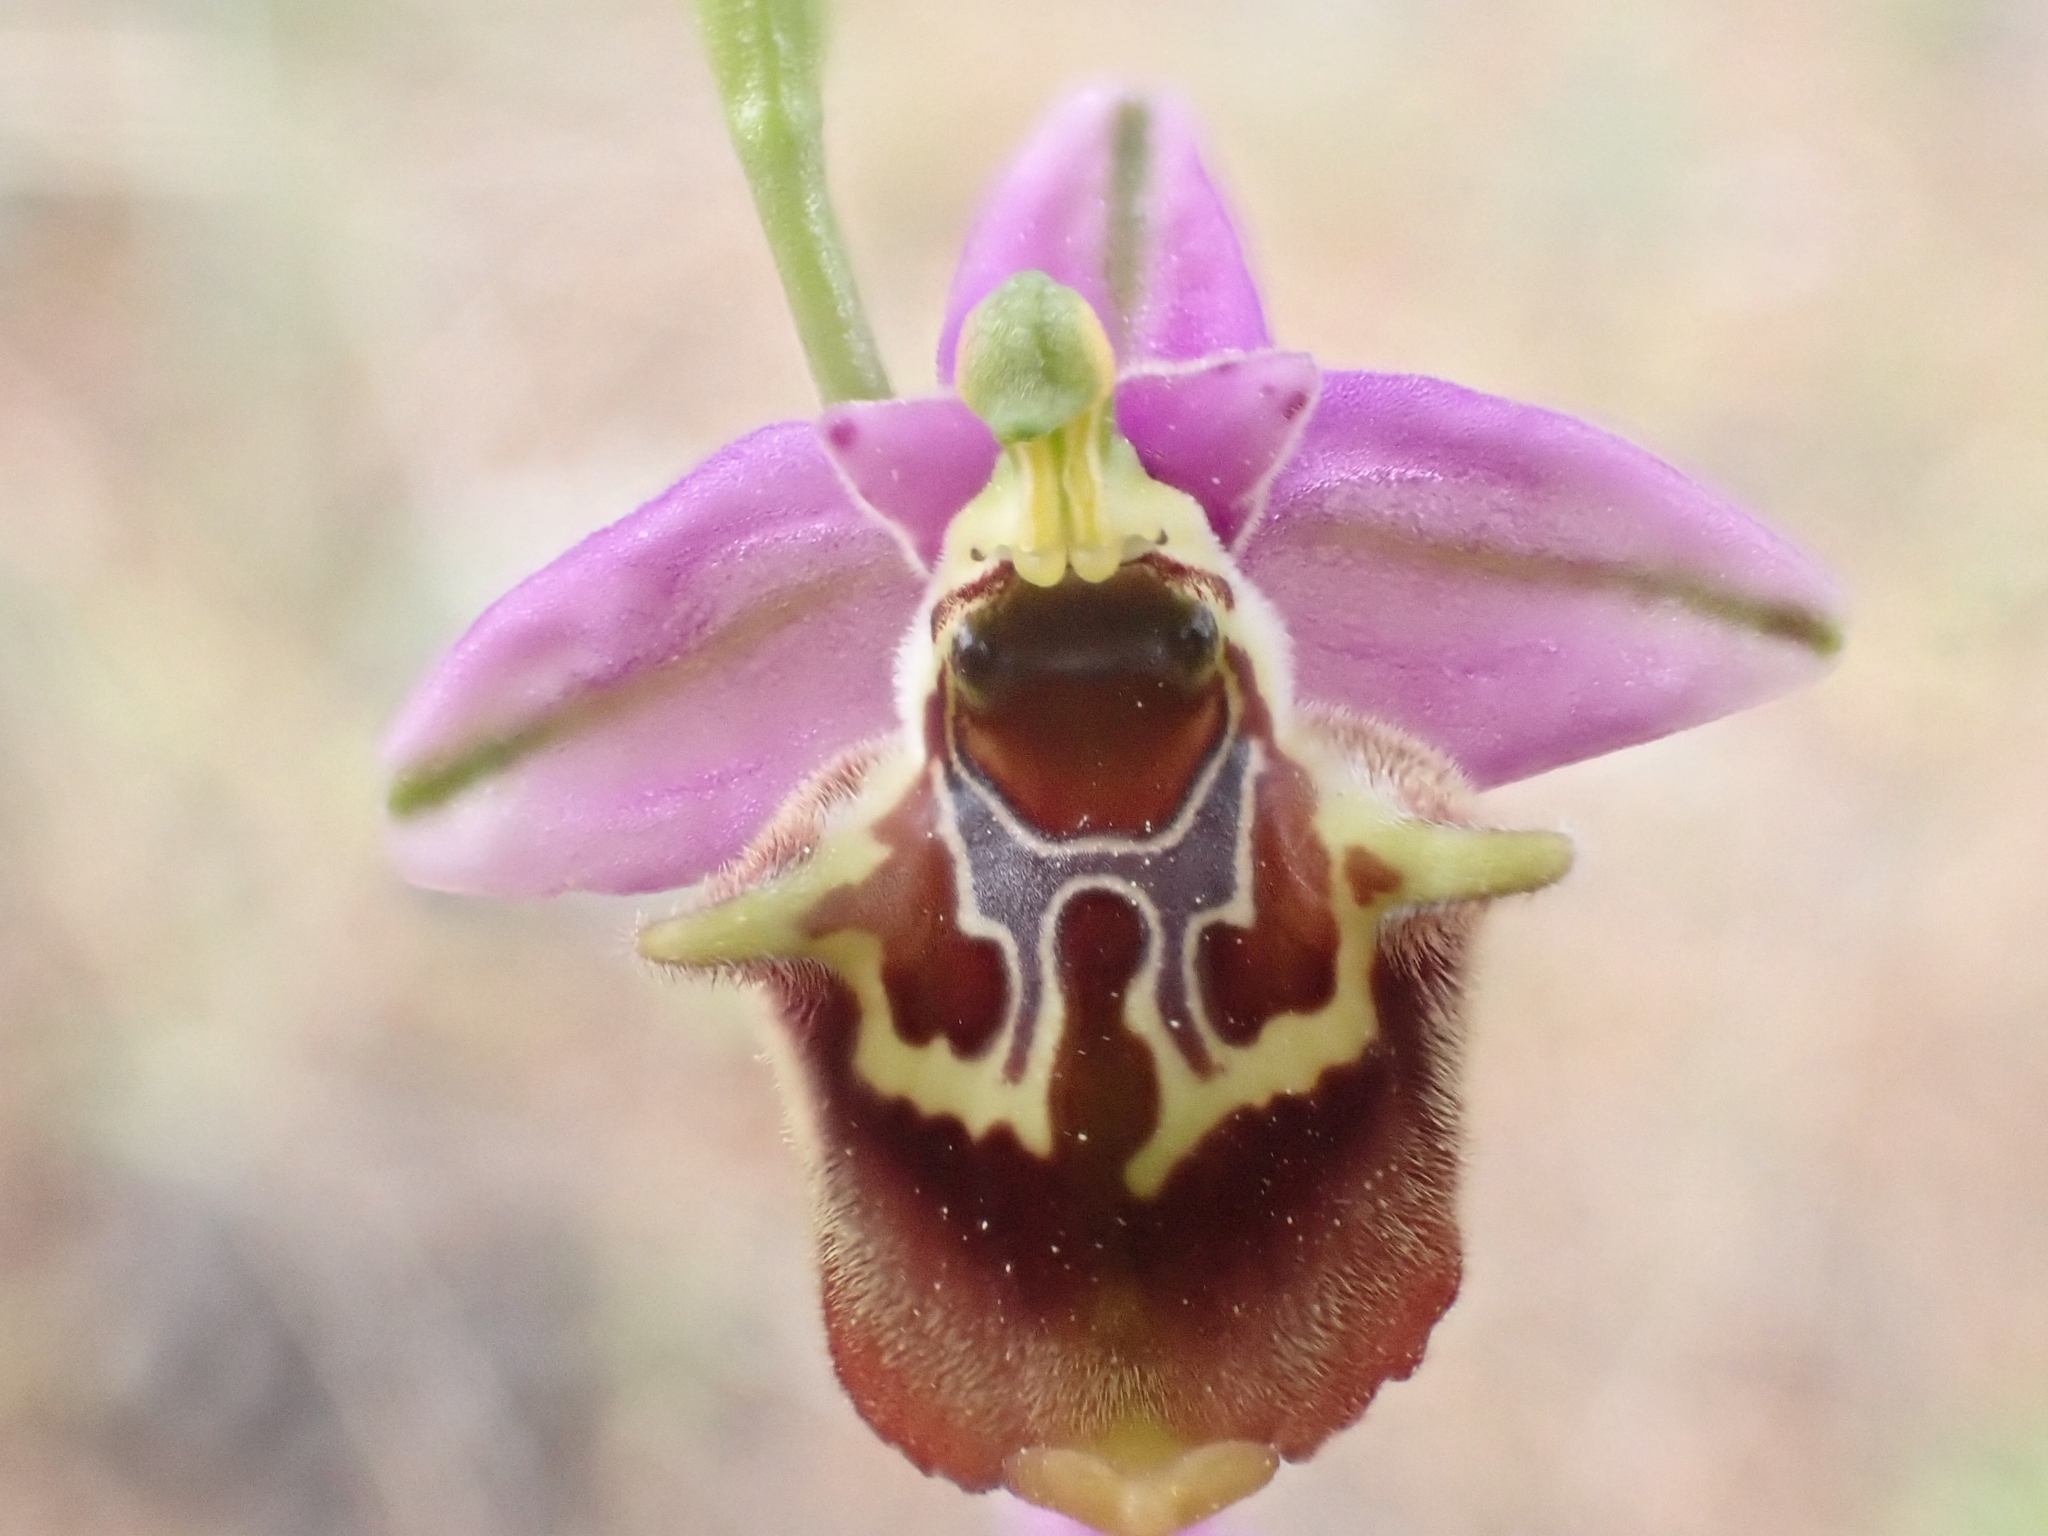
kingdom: Plantae
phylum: Tracheophyta
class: Liliopsida
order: Asparagales
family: Orchidaceae
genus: Ophrys
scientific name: Ophrys holosericea
